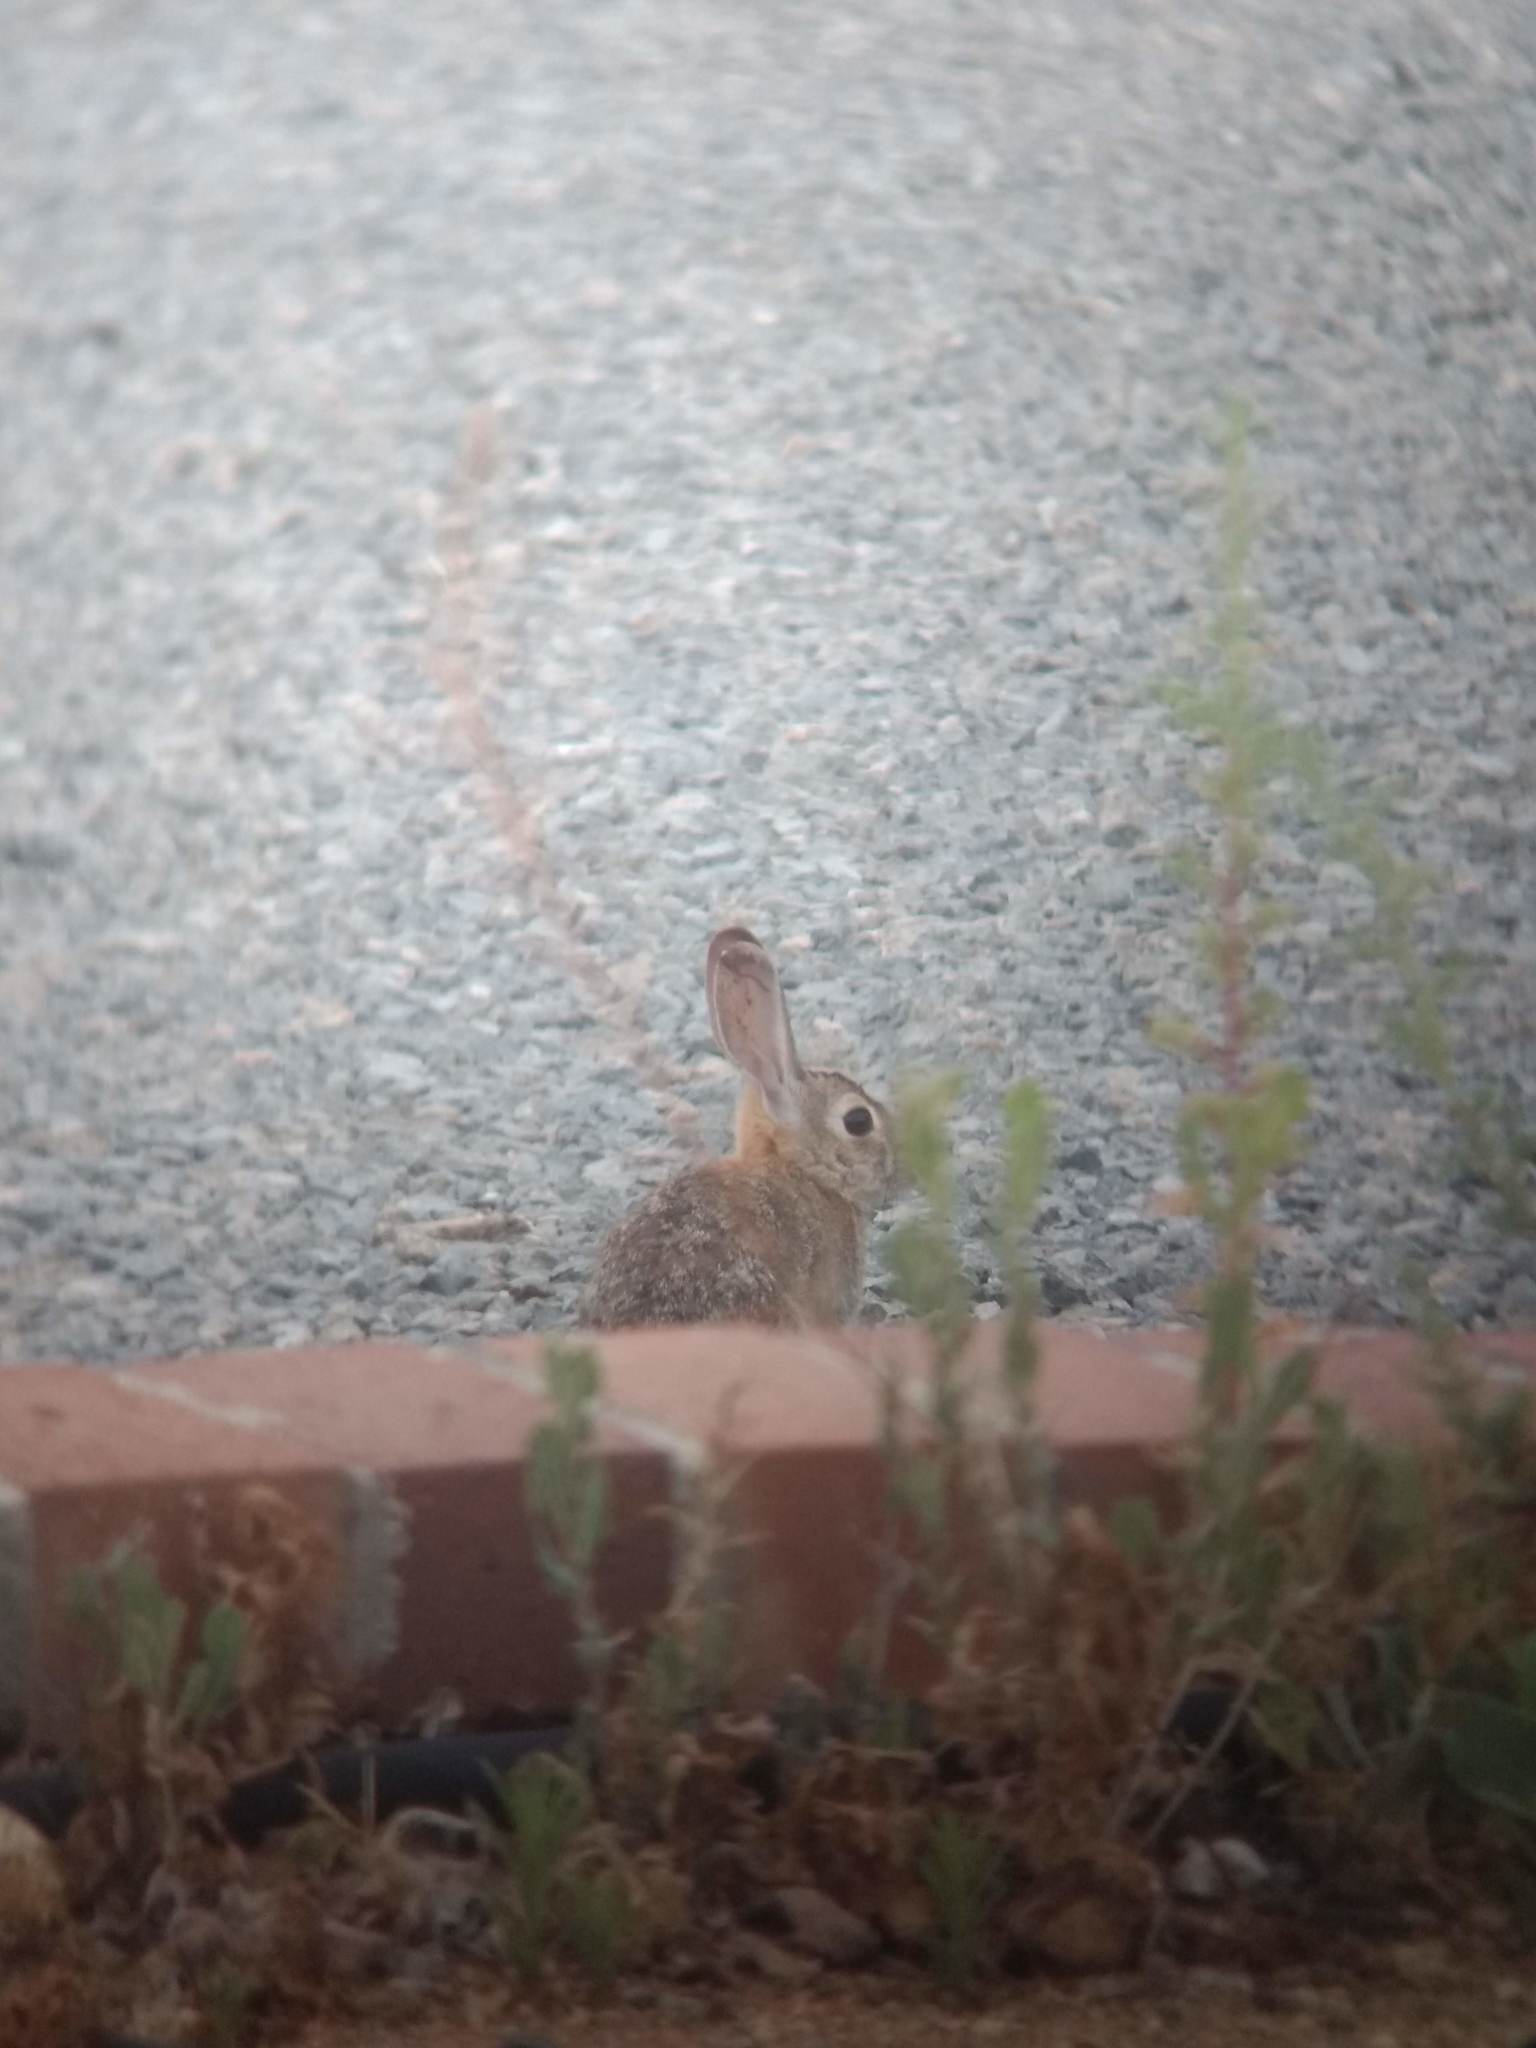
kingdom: Animalia
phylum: Chordata
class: Mammalia
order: Lagomorpha
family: Leporidae
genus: Sylvilagus
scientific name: Sylvilagus audubonii
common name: Desert cottontail
